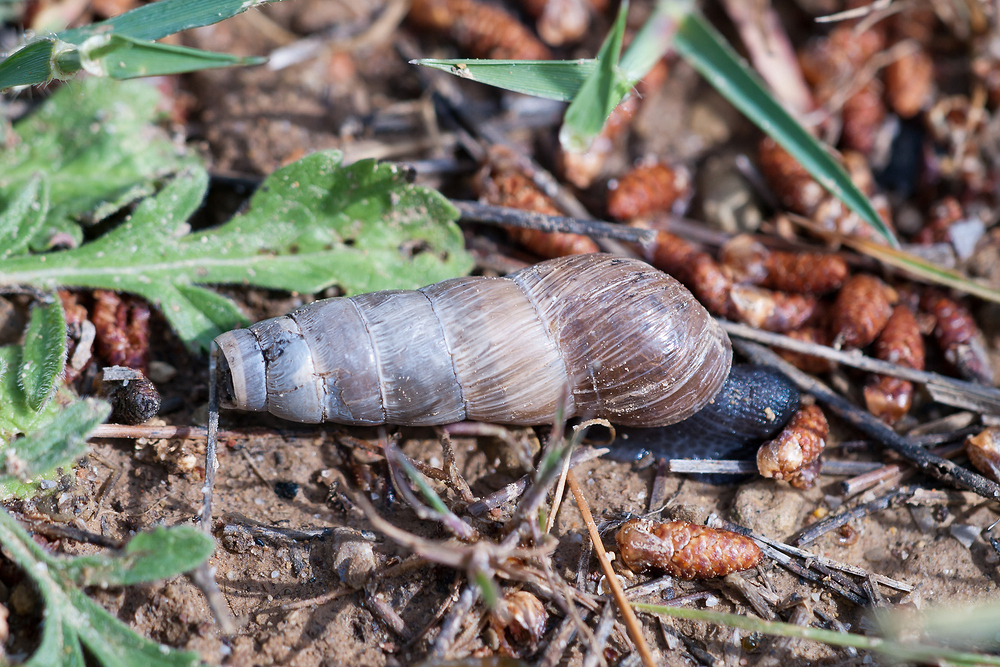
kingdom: Animalia
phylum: Mollusca
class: Gastropoda
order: Stylommatophora
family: Achatinidae
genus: Rumina
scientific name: Rumina decollata
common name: Decollate snail
